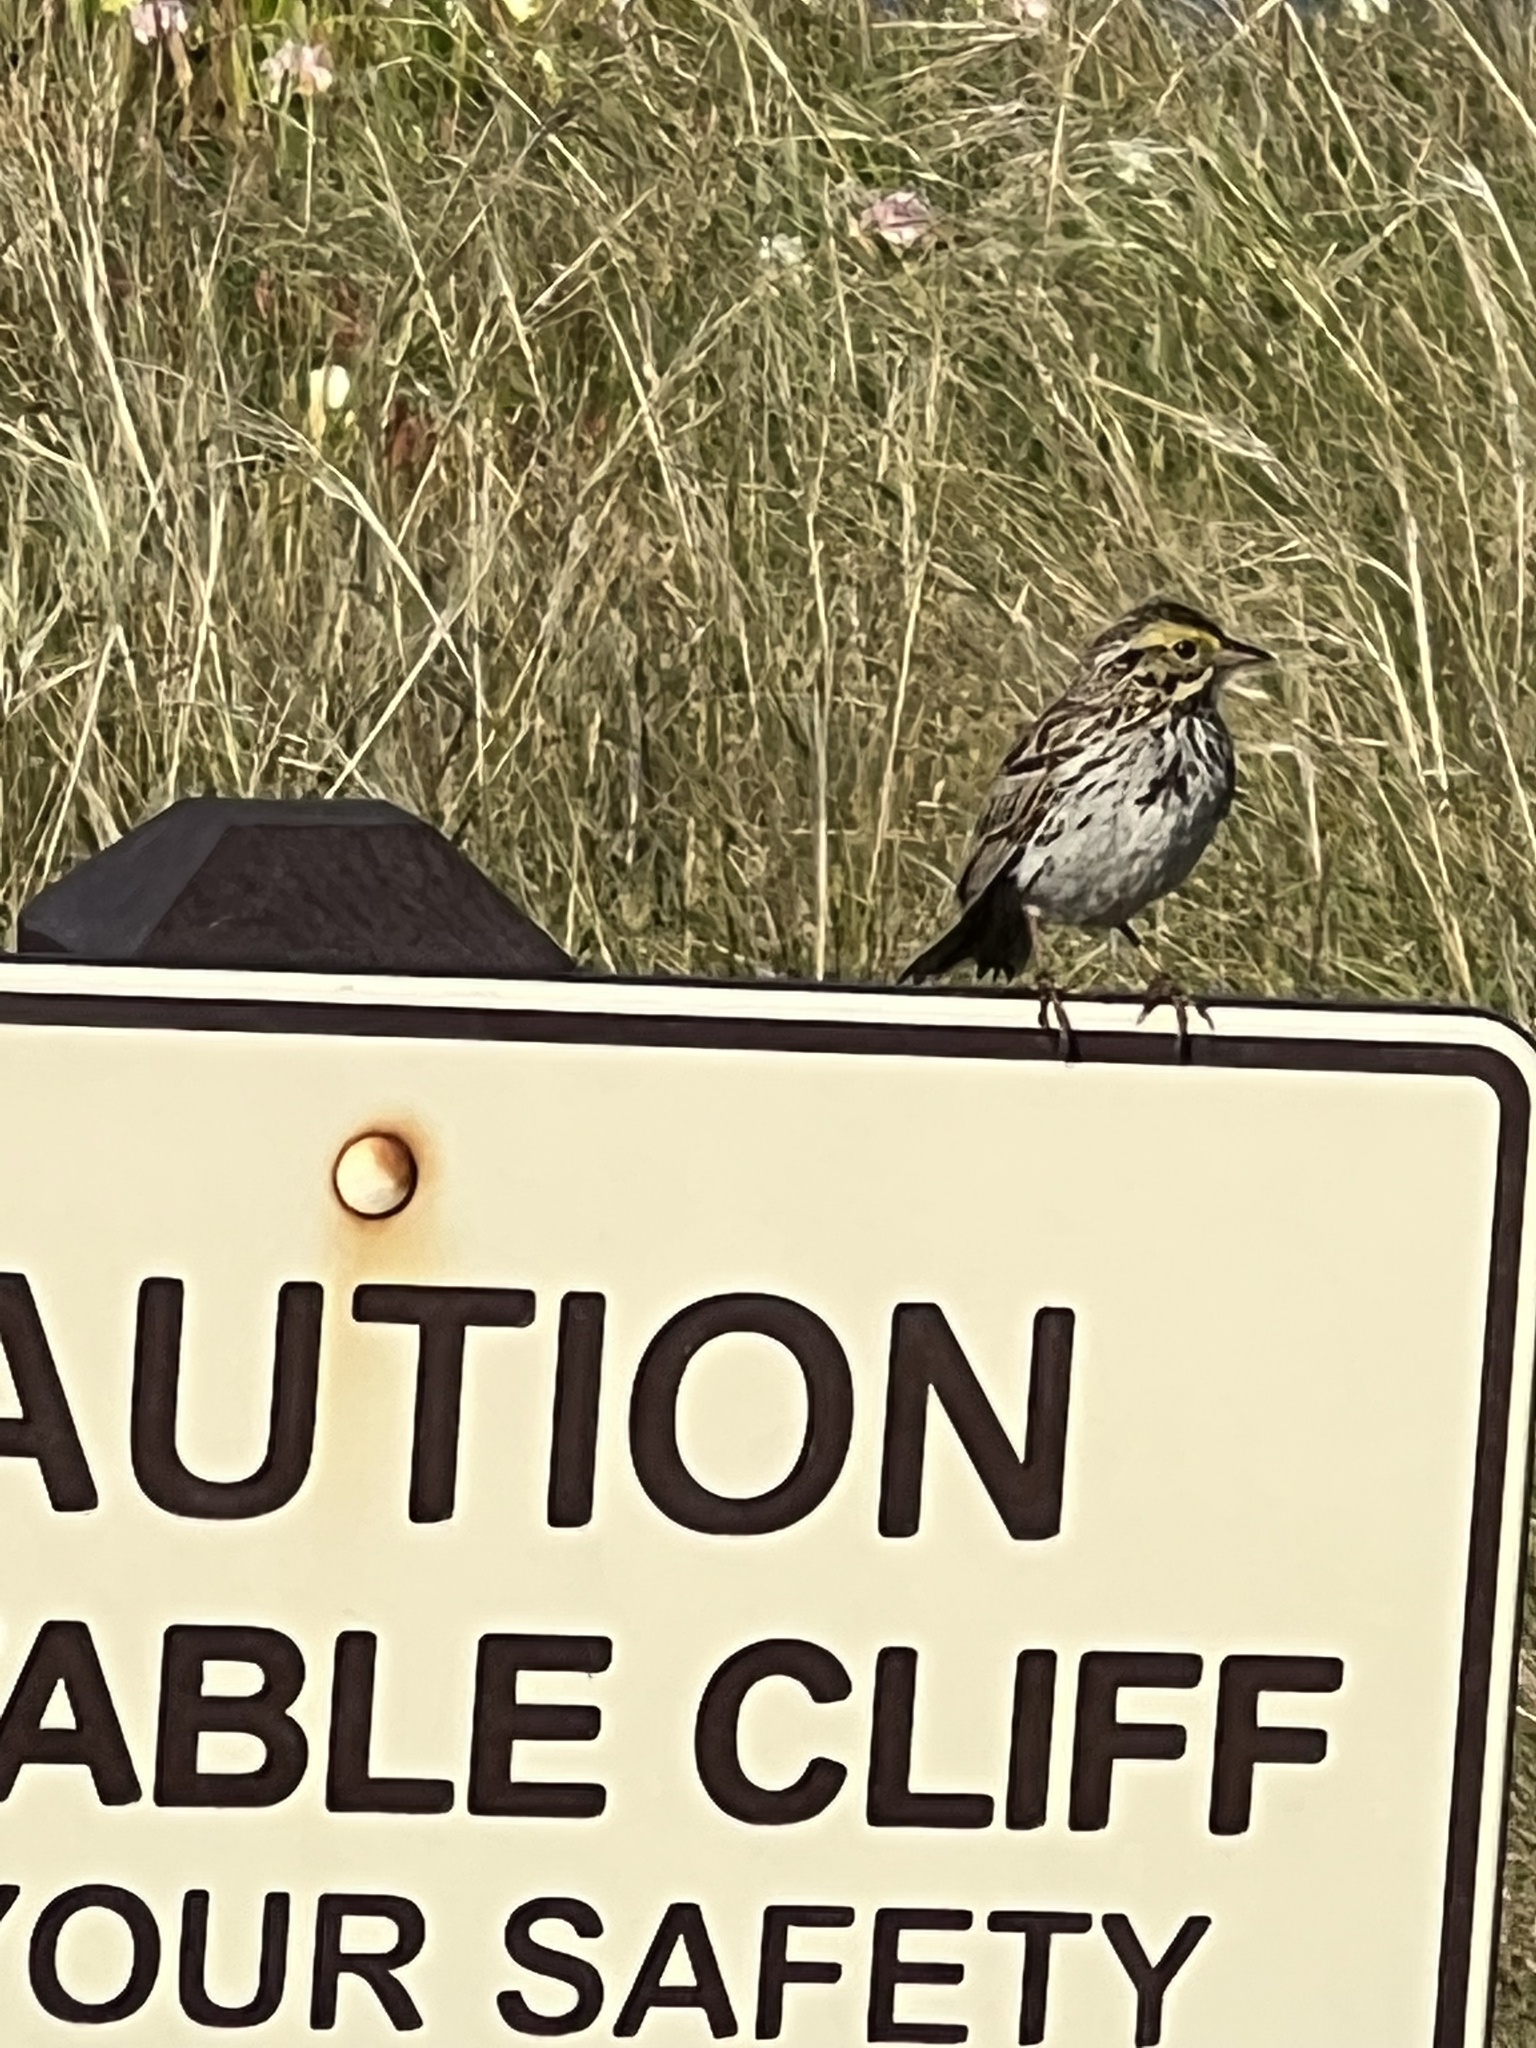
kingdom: Animalia
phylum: Chordata
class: Aves
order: Passeriformes
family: Passerellidae
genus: Passerculus
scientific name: Passerculus sandwichensis
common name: Savannah sparrow
